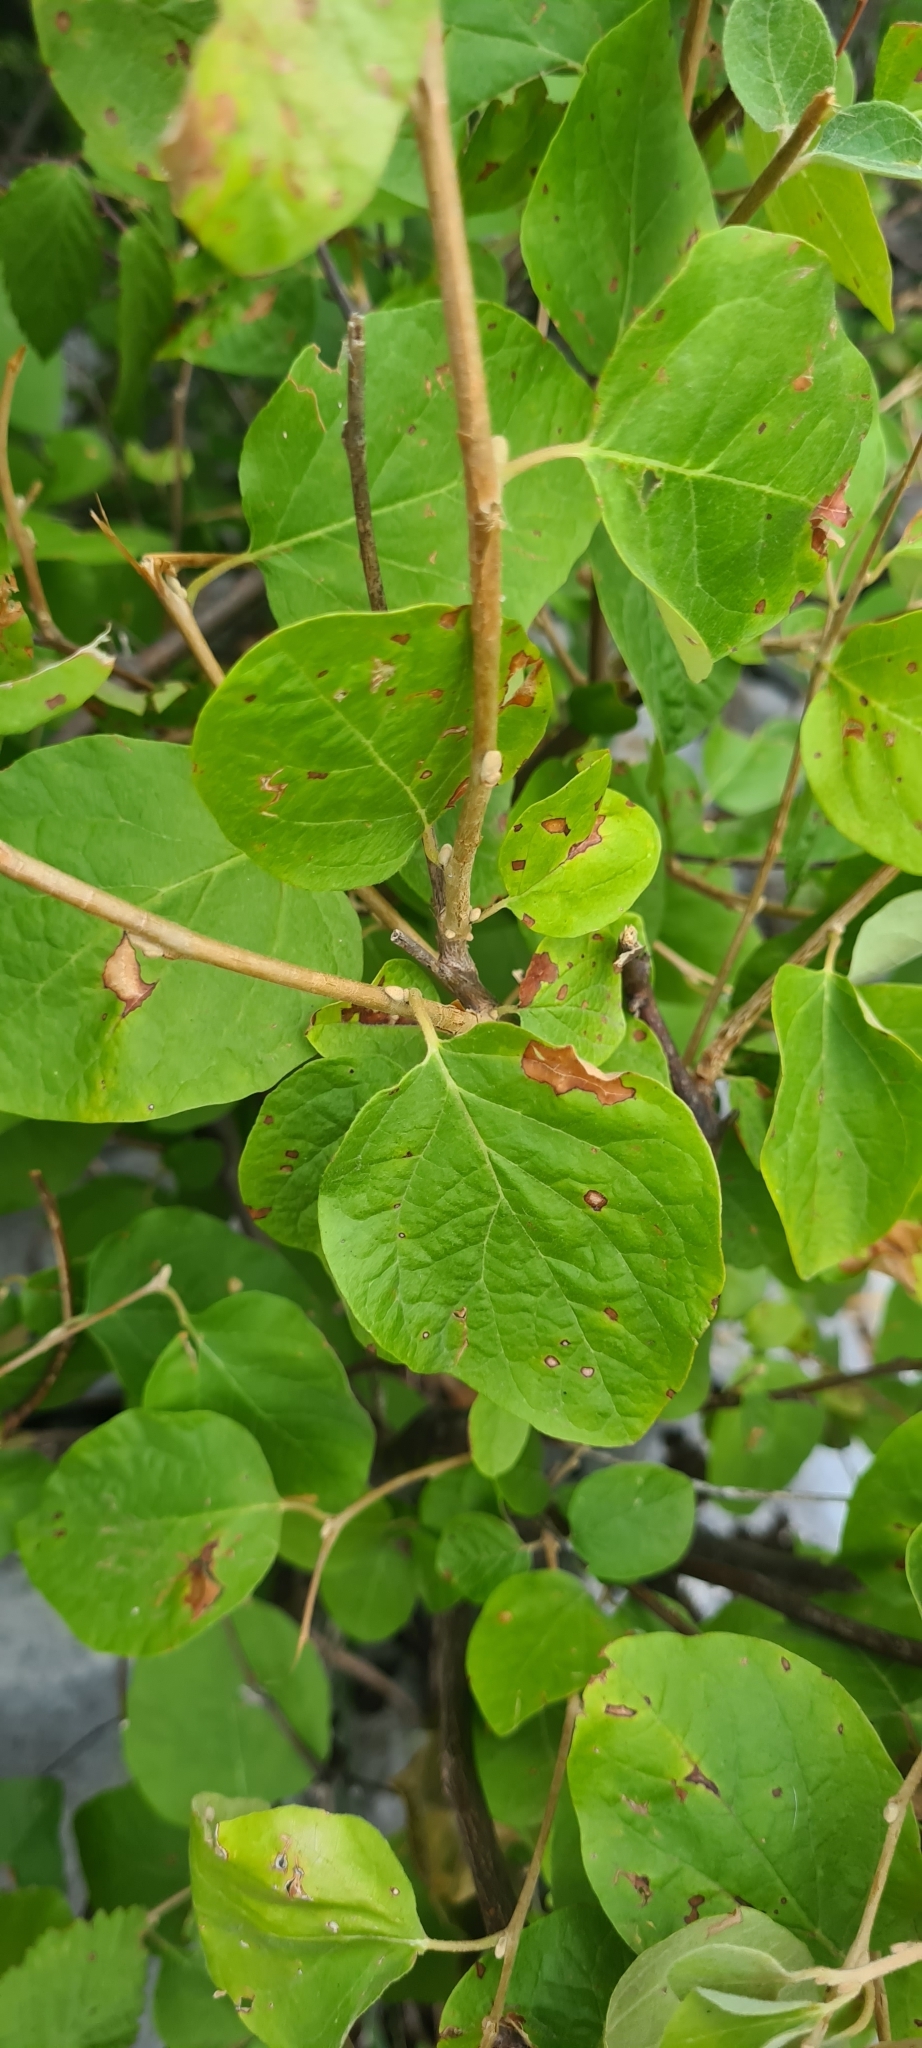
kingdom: Plantae
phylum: Tracheophyta
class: Magnoliopsida
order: Ericales
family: Styracaceae
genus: Styrax
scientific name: Styrax officinalis
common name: Storax
